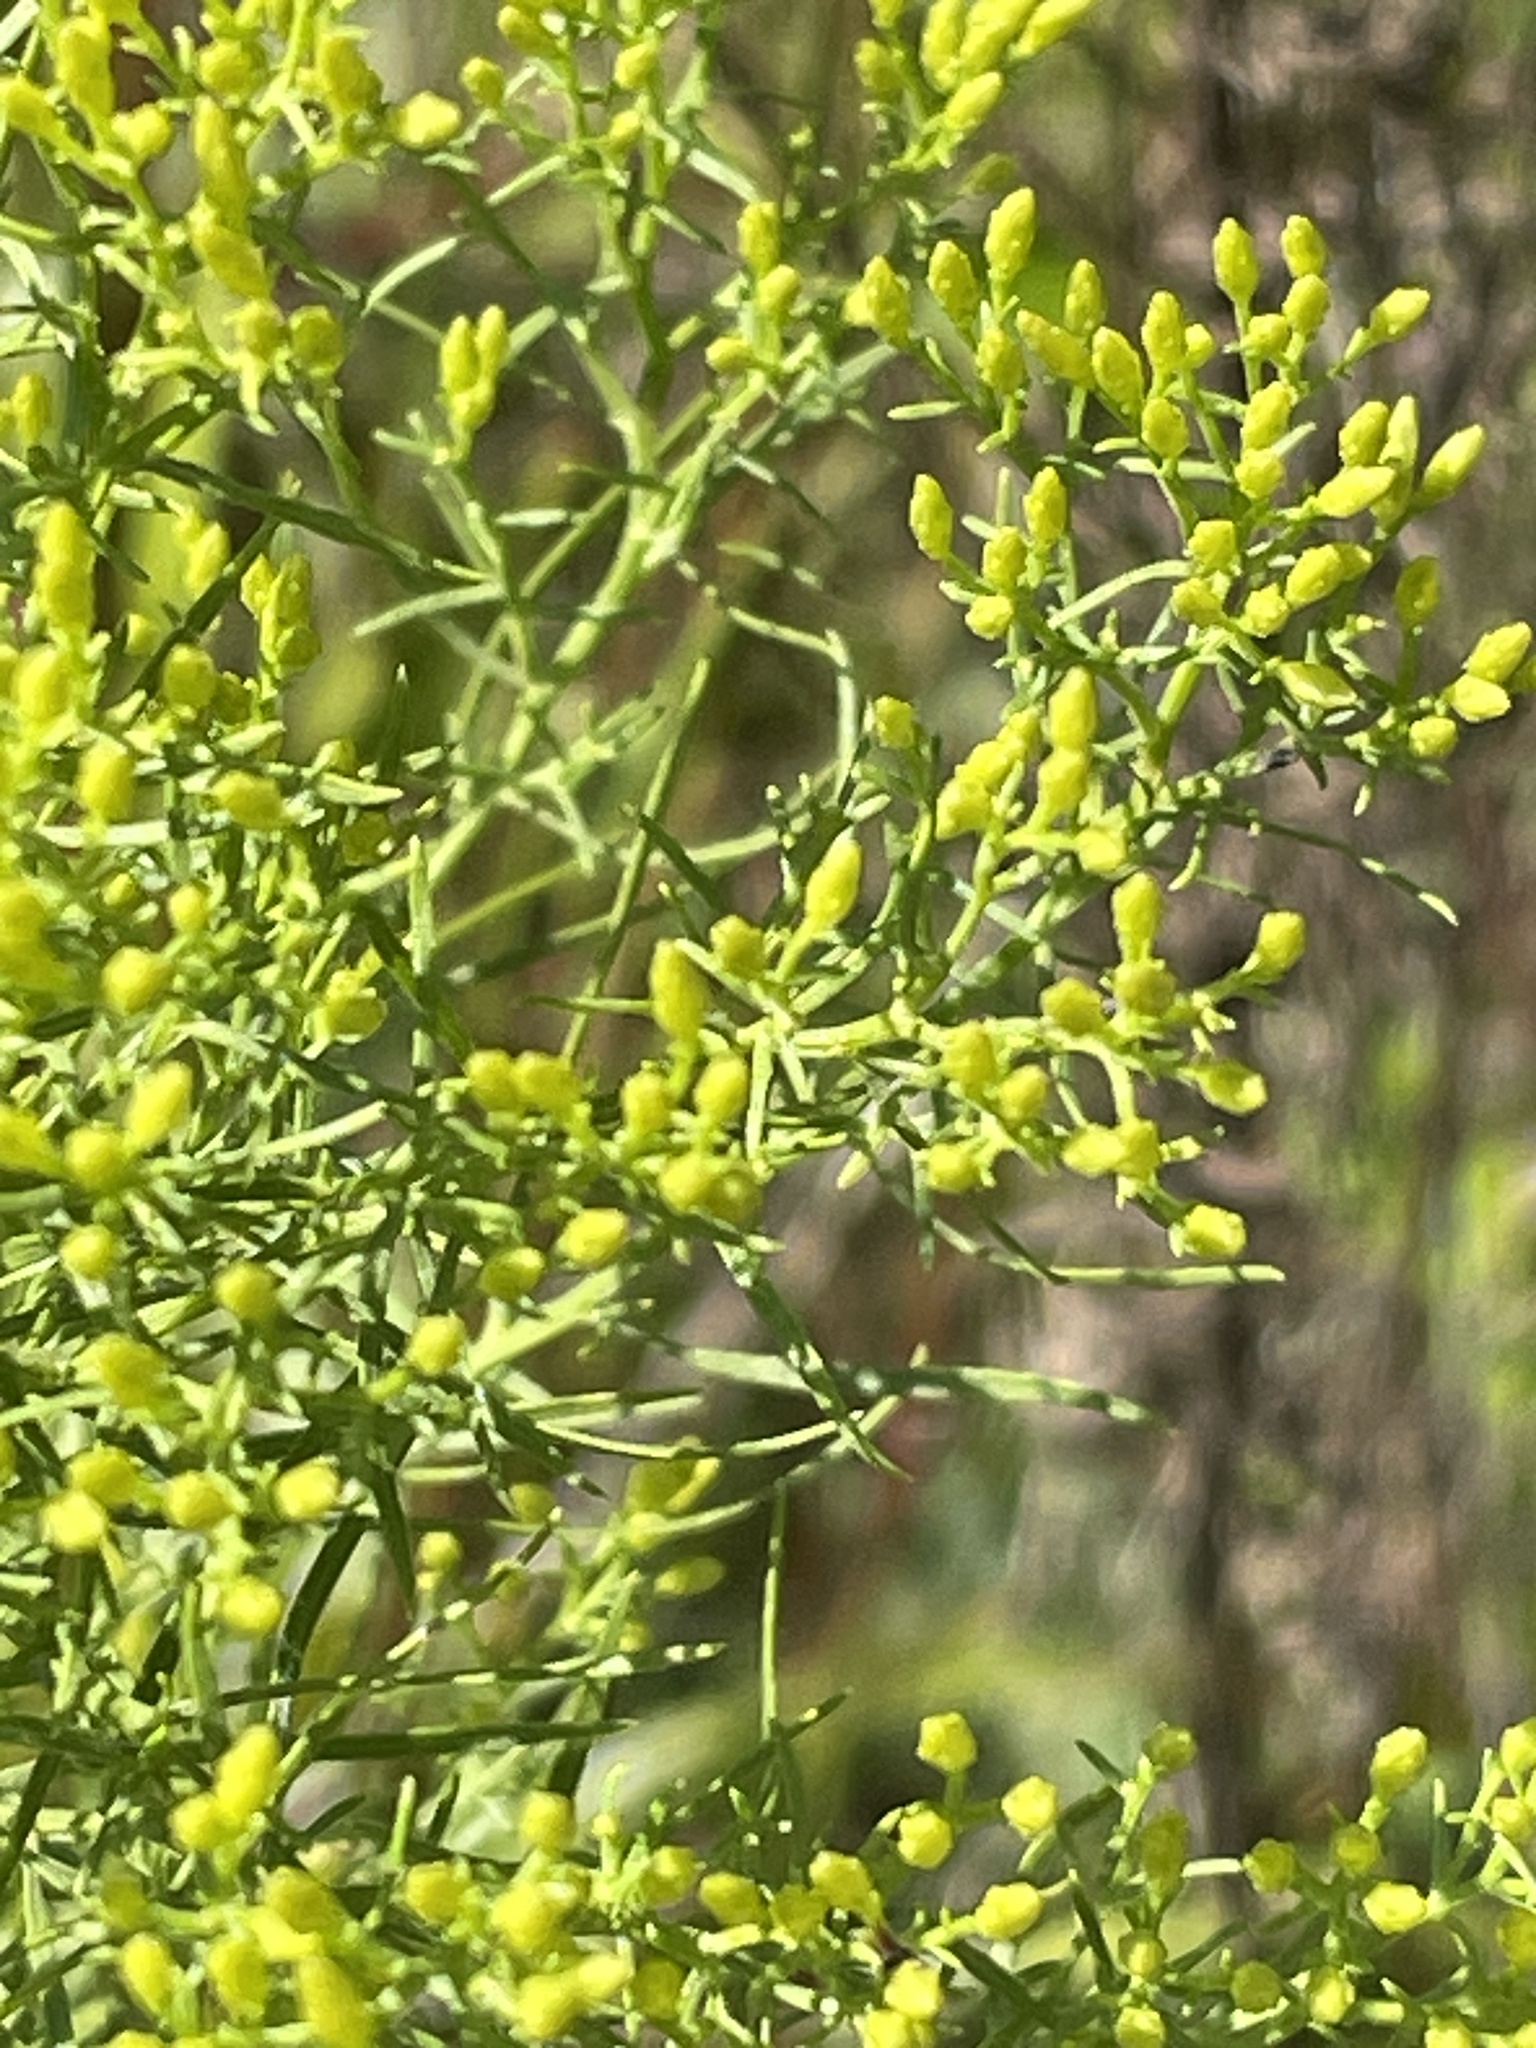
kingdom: Plantae
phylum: Tracheophyta
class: Magnoliopsida
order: Asterales
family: Asteraceae
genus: Euthamia
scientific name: Euthamia caroliniana
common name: Coastal plain goldentop
